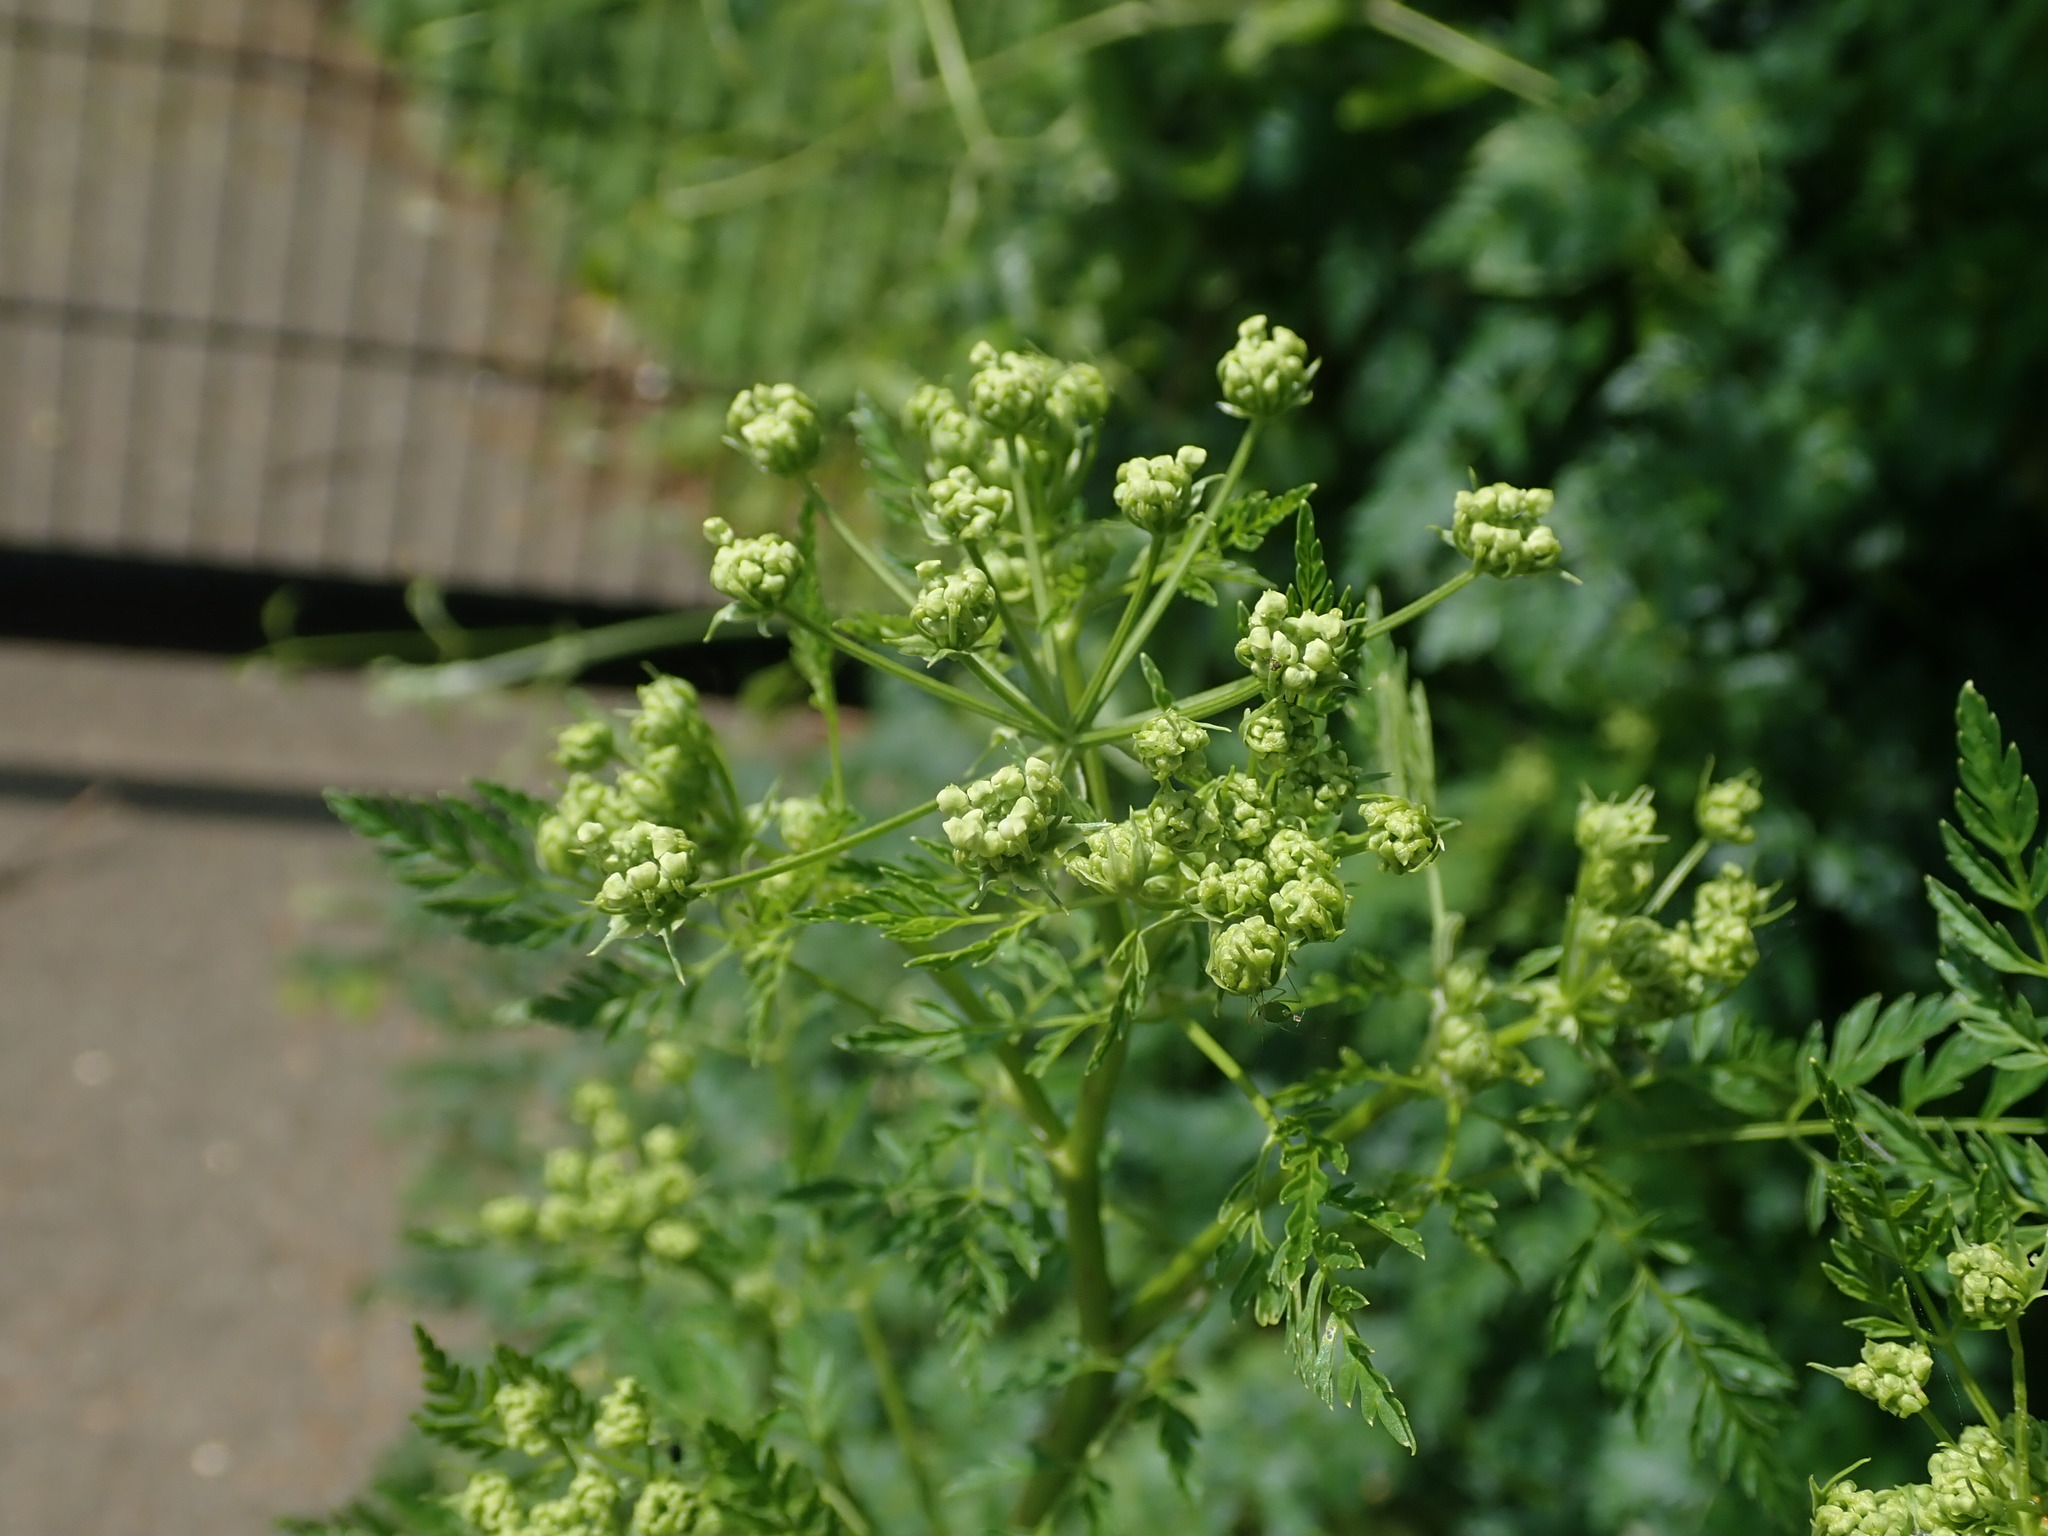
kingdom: Plantae
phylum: Tracheophyta
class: Magnoliopsida
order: Apiales
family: Apiaceae
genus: Conium
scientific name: Conium maculatum
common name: Hemlock
